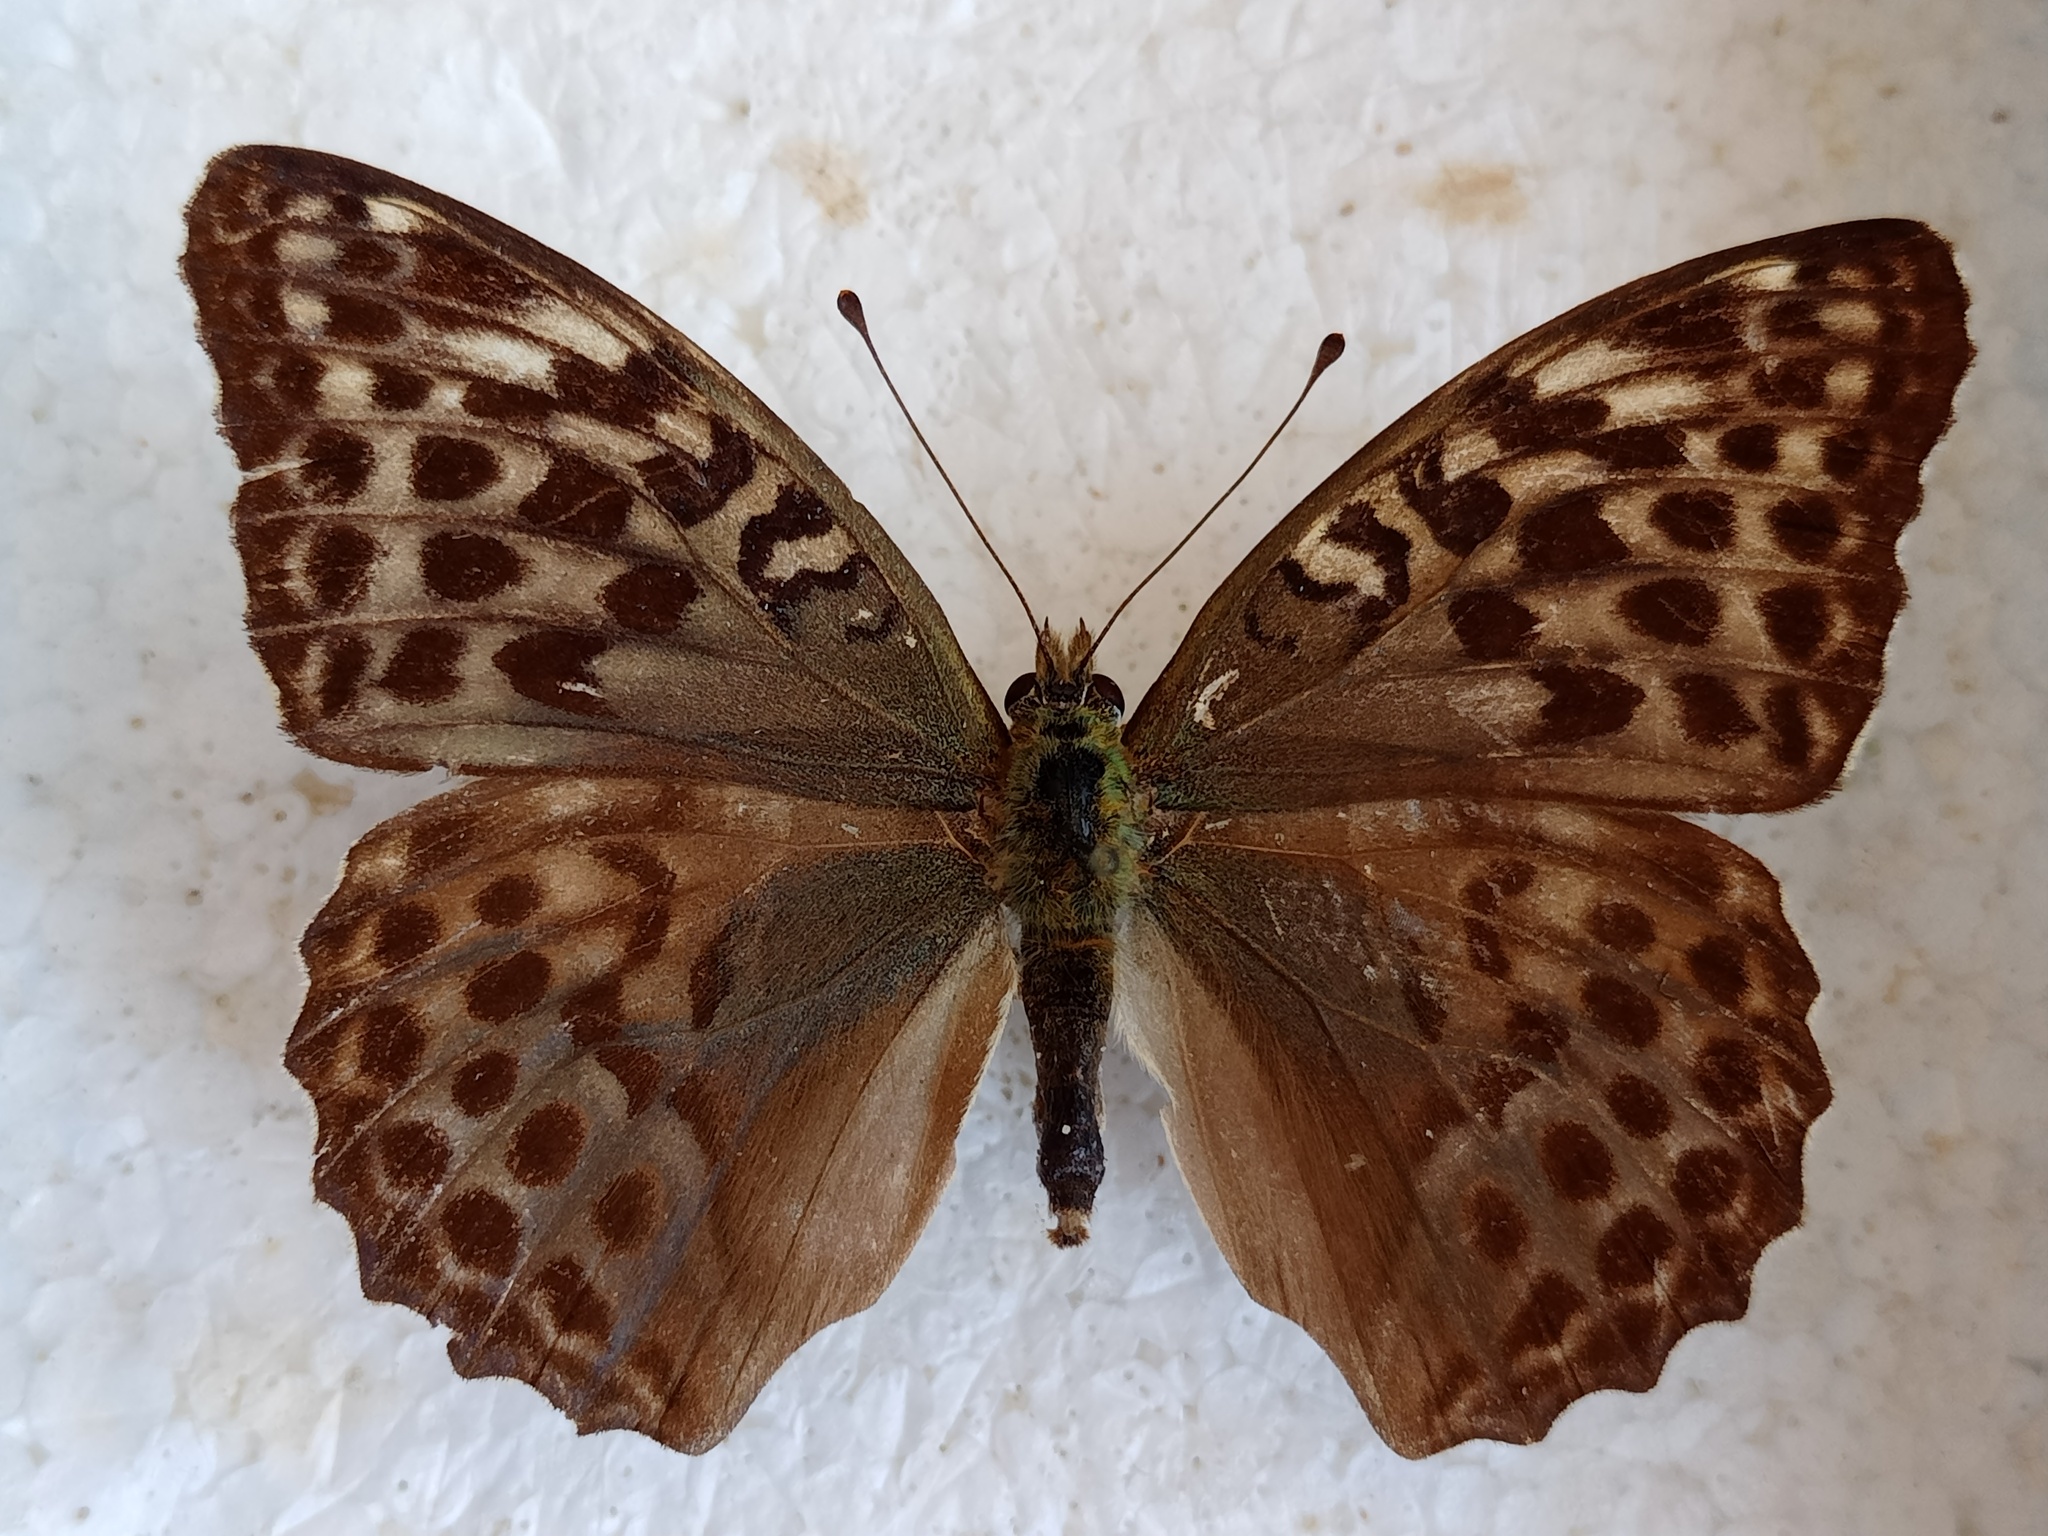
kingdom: Animalia
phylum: Arthropoda
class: Insecta
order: Lepidoptera
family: Nymphalidae
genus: Argynnis
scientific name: Argynnis paphia
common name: Silver-washed fritillary
